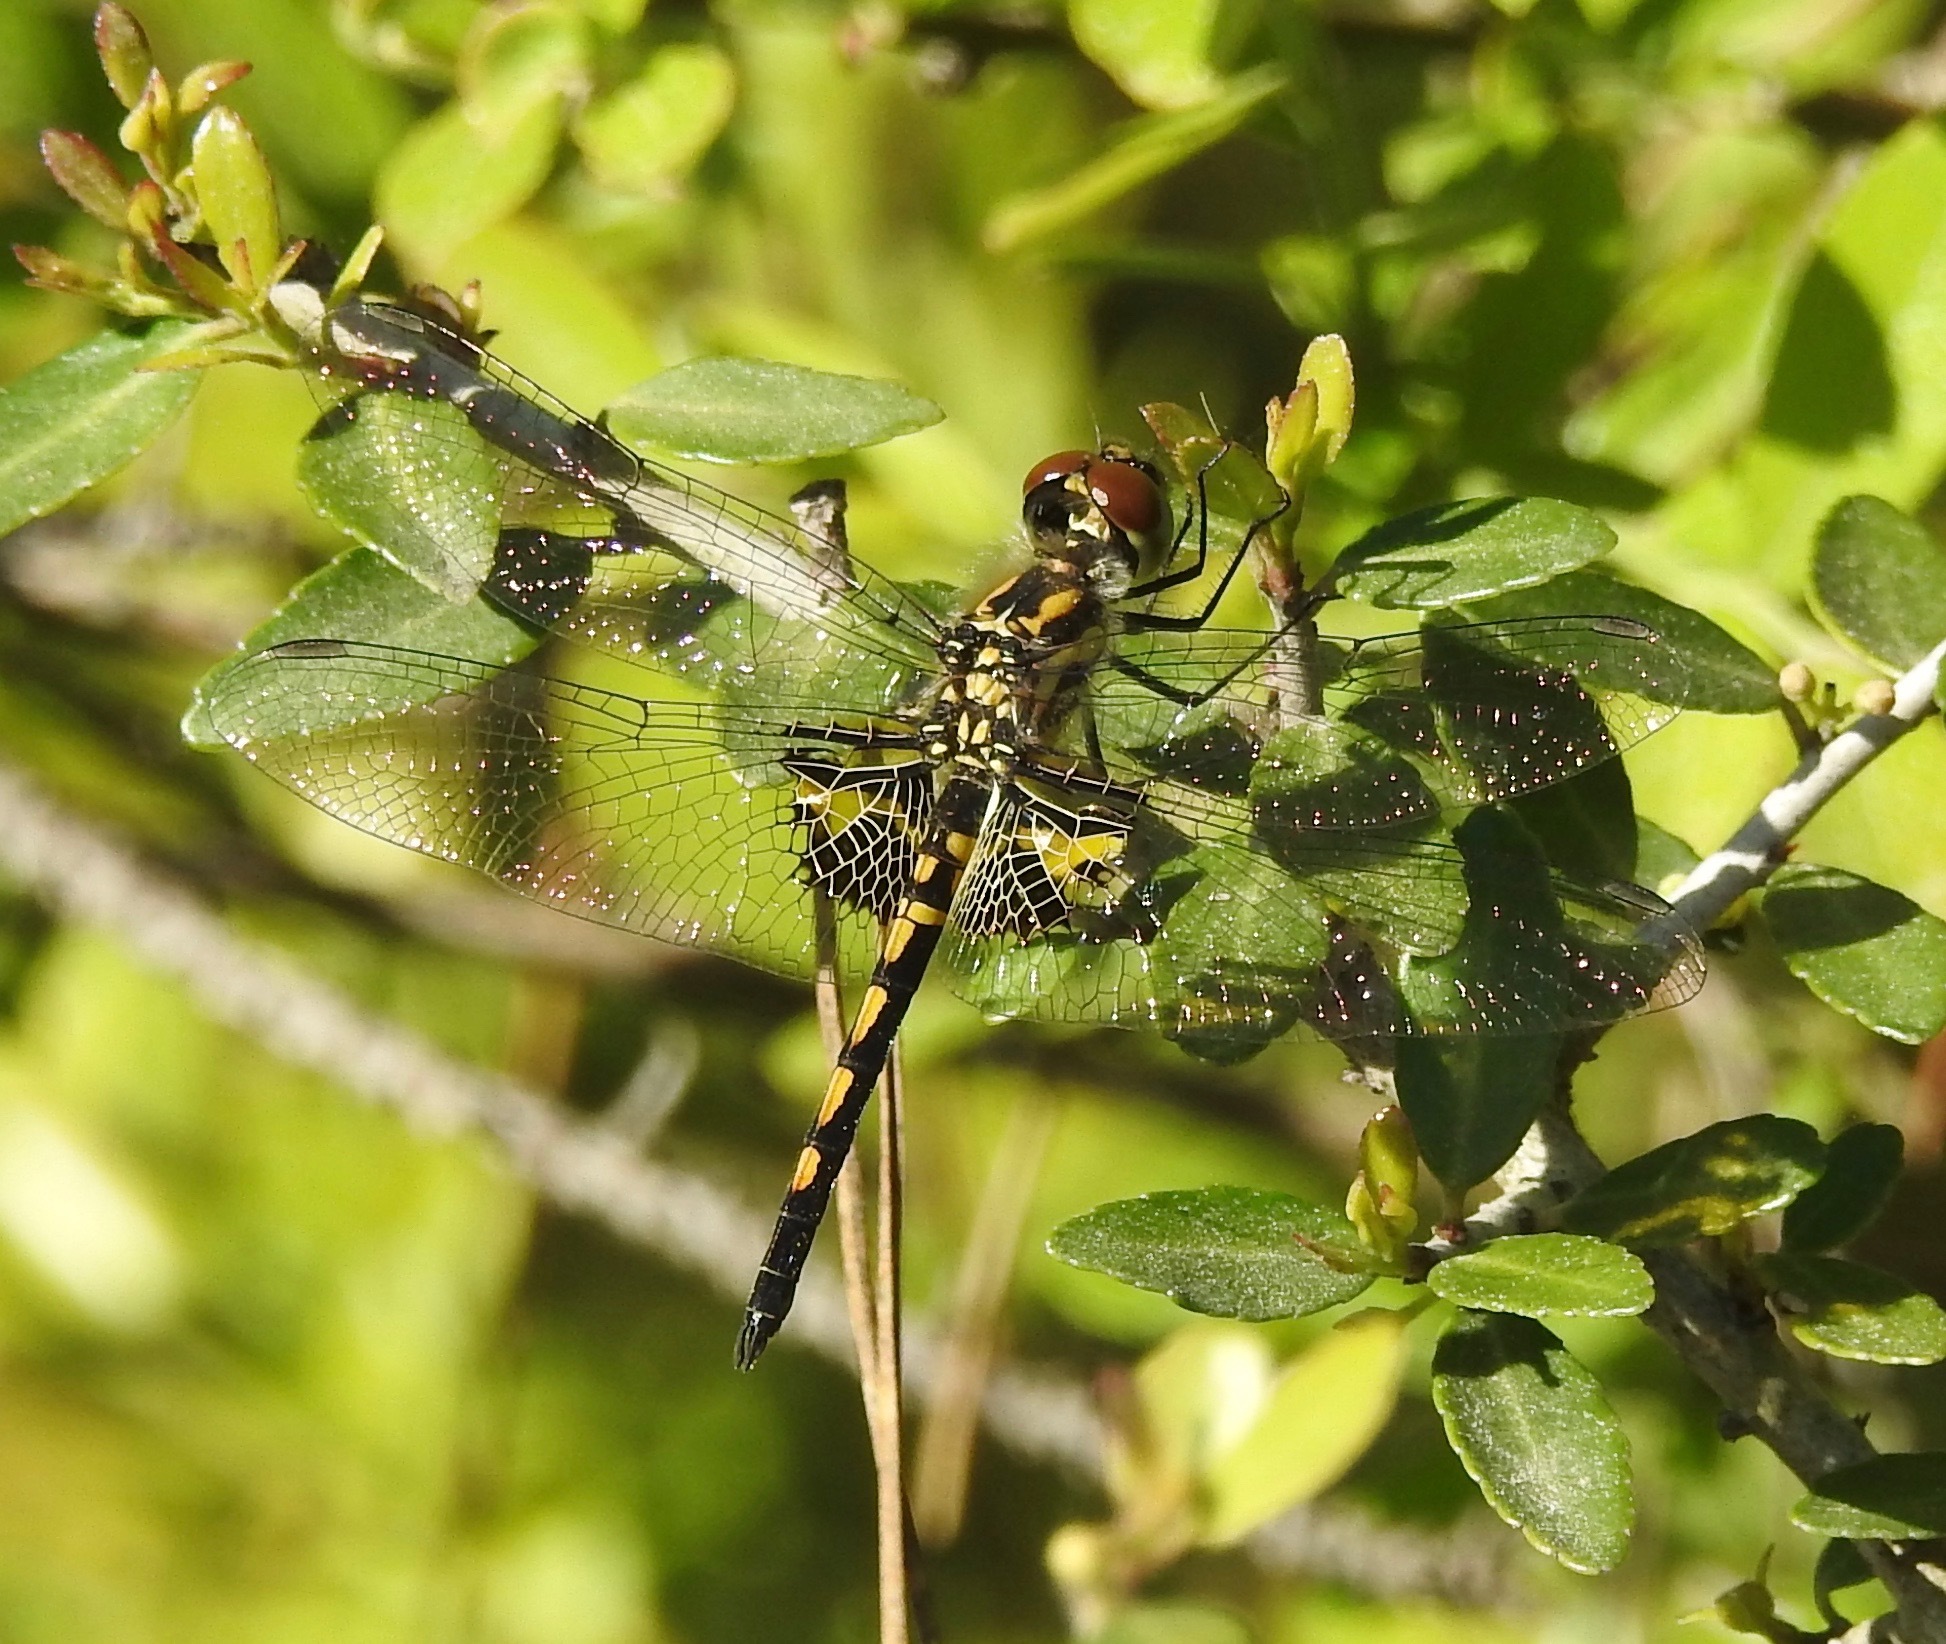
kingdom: Animalia
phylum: Arthropoda
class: Insecta
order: Odonata
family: Libellulidae
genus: Celithemis
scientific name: Celithemis ornata
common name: Ornate pennant
